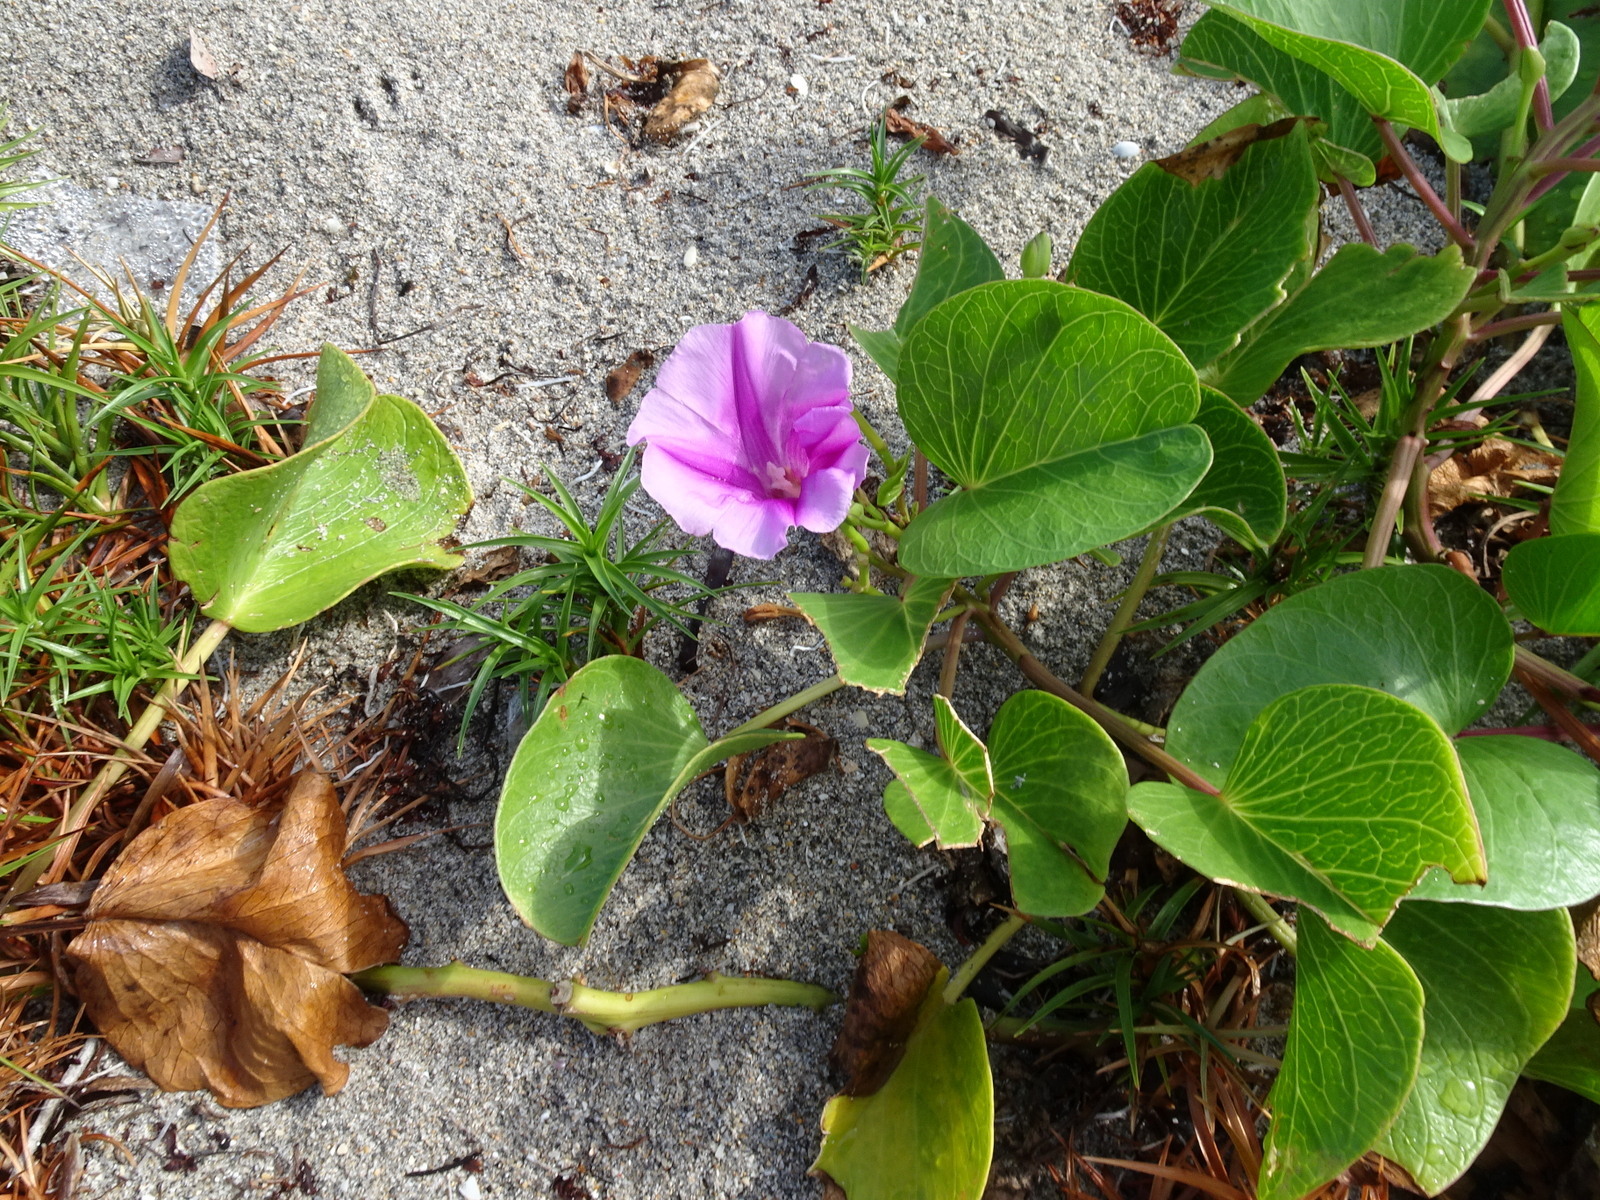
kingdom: Plantae
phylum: Tracheophyta
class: Magnoliopsida
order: Solanales
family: Convolvulaceae
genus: Ipomoea
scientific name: Ipomoea pes-caprae
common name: Beach morning glory
